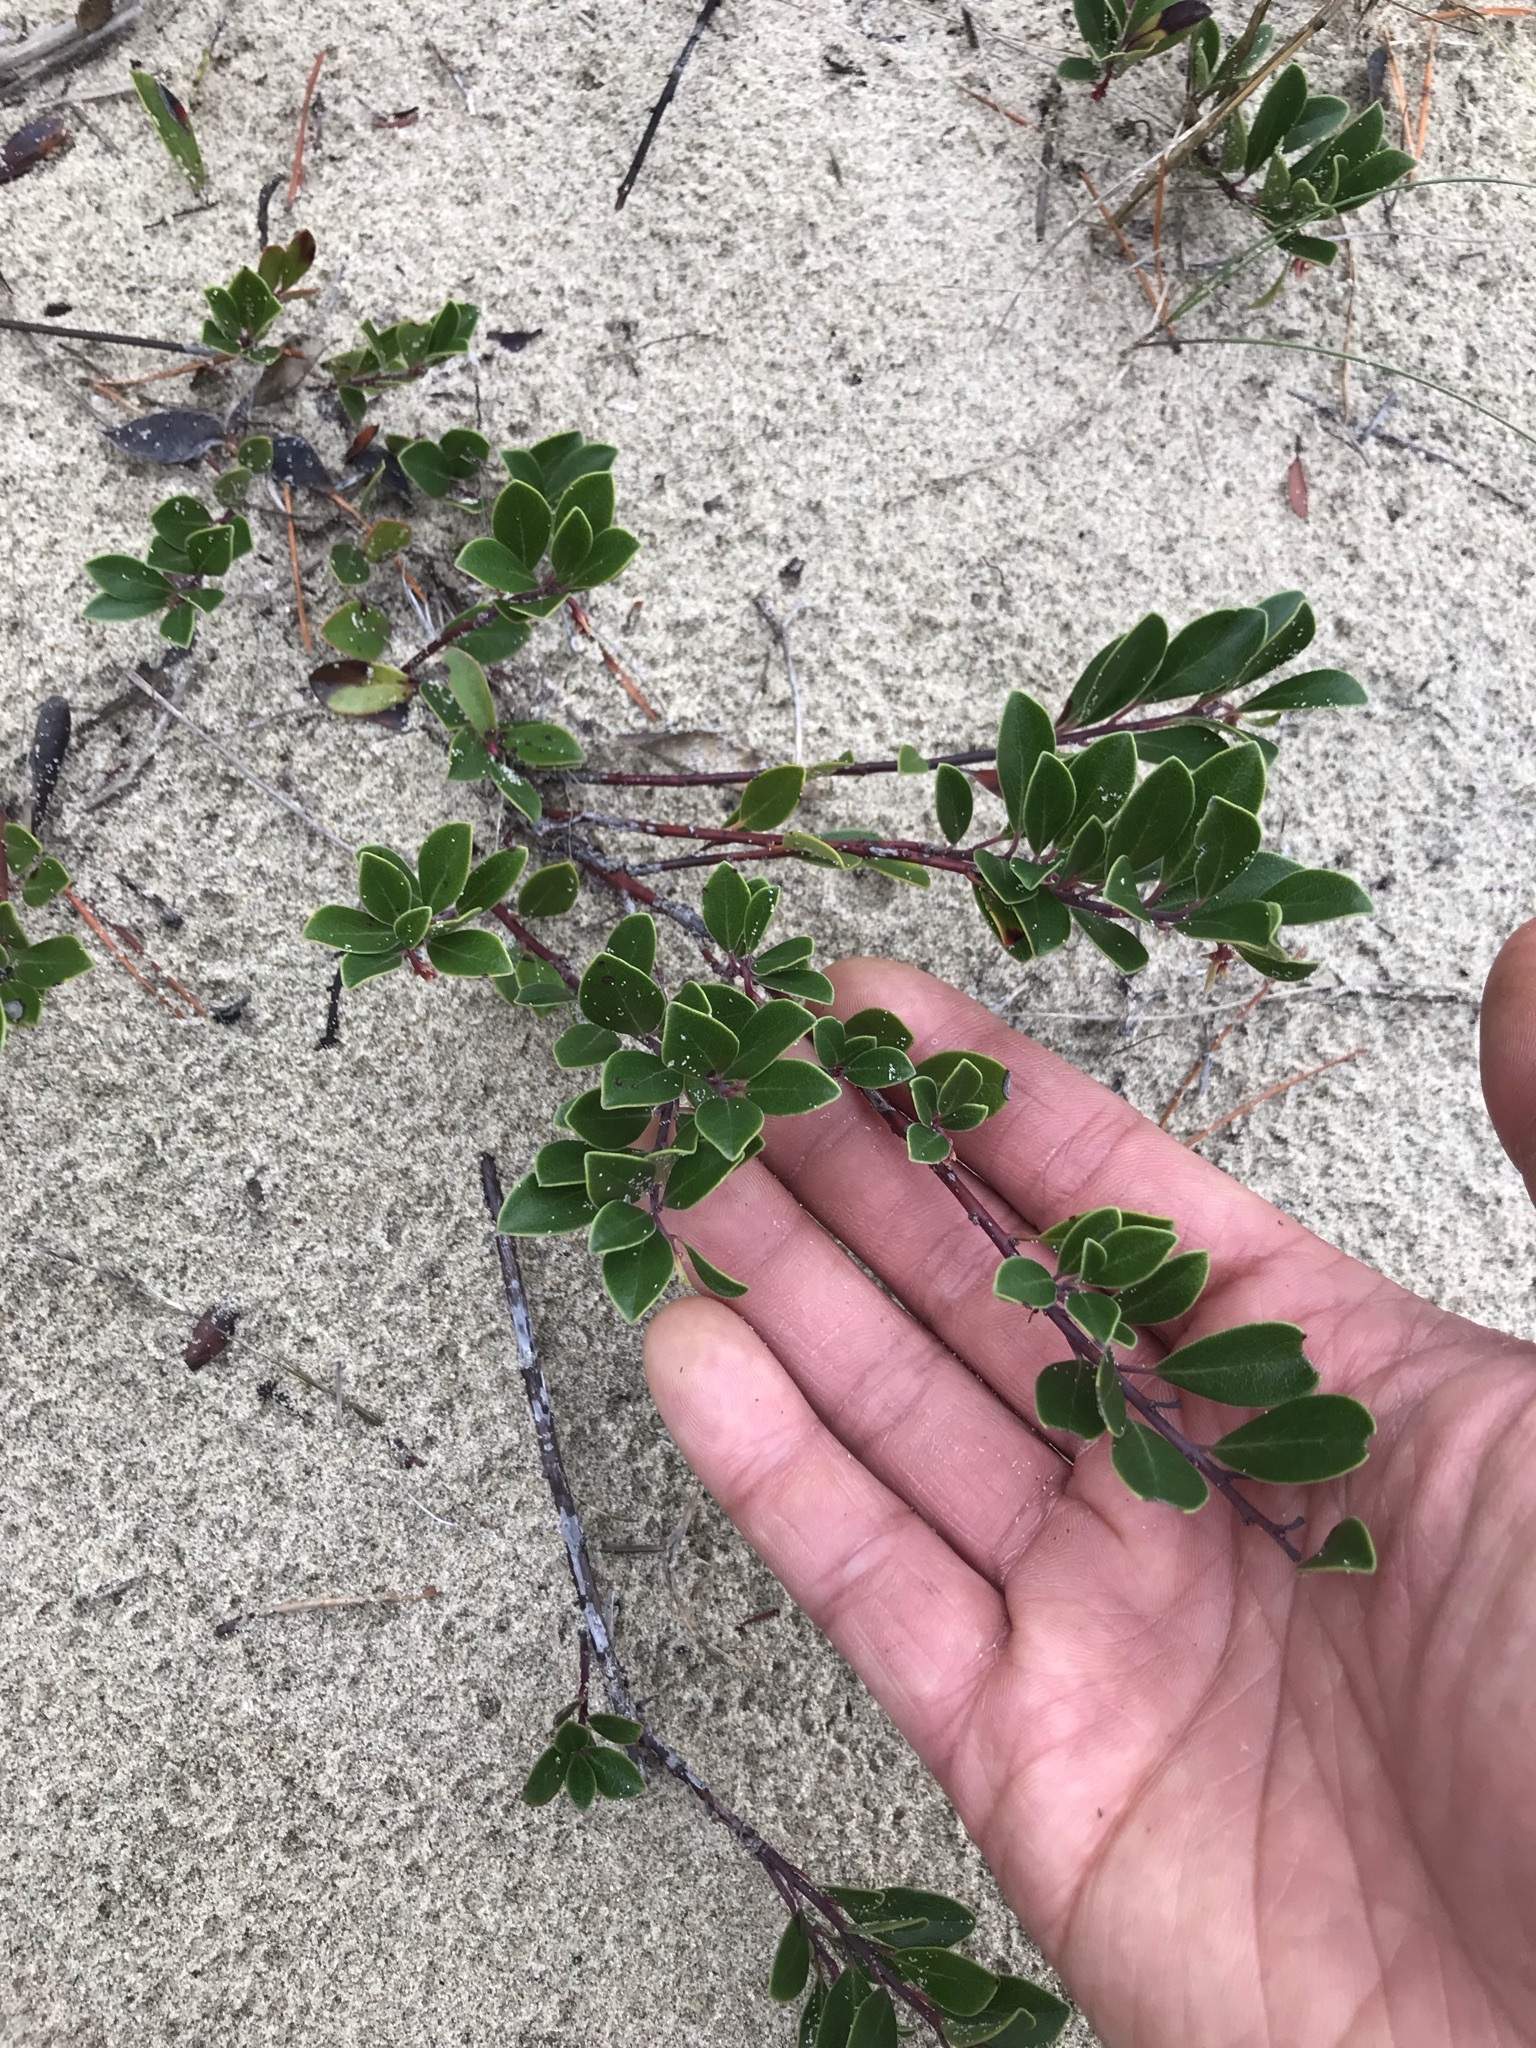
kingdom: Plantae
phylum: Tracheophyta
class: Magnoliopsida
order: Ericales
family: Ericaceae
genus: Arctostaphylos
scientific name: Arctostaphylos uva-ursi
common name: Bearberry
